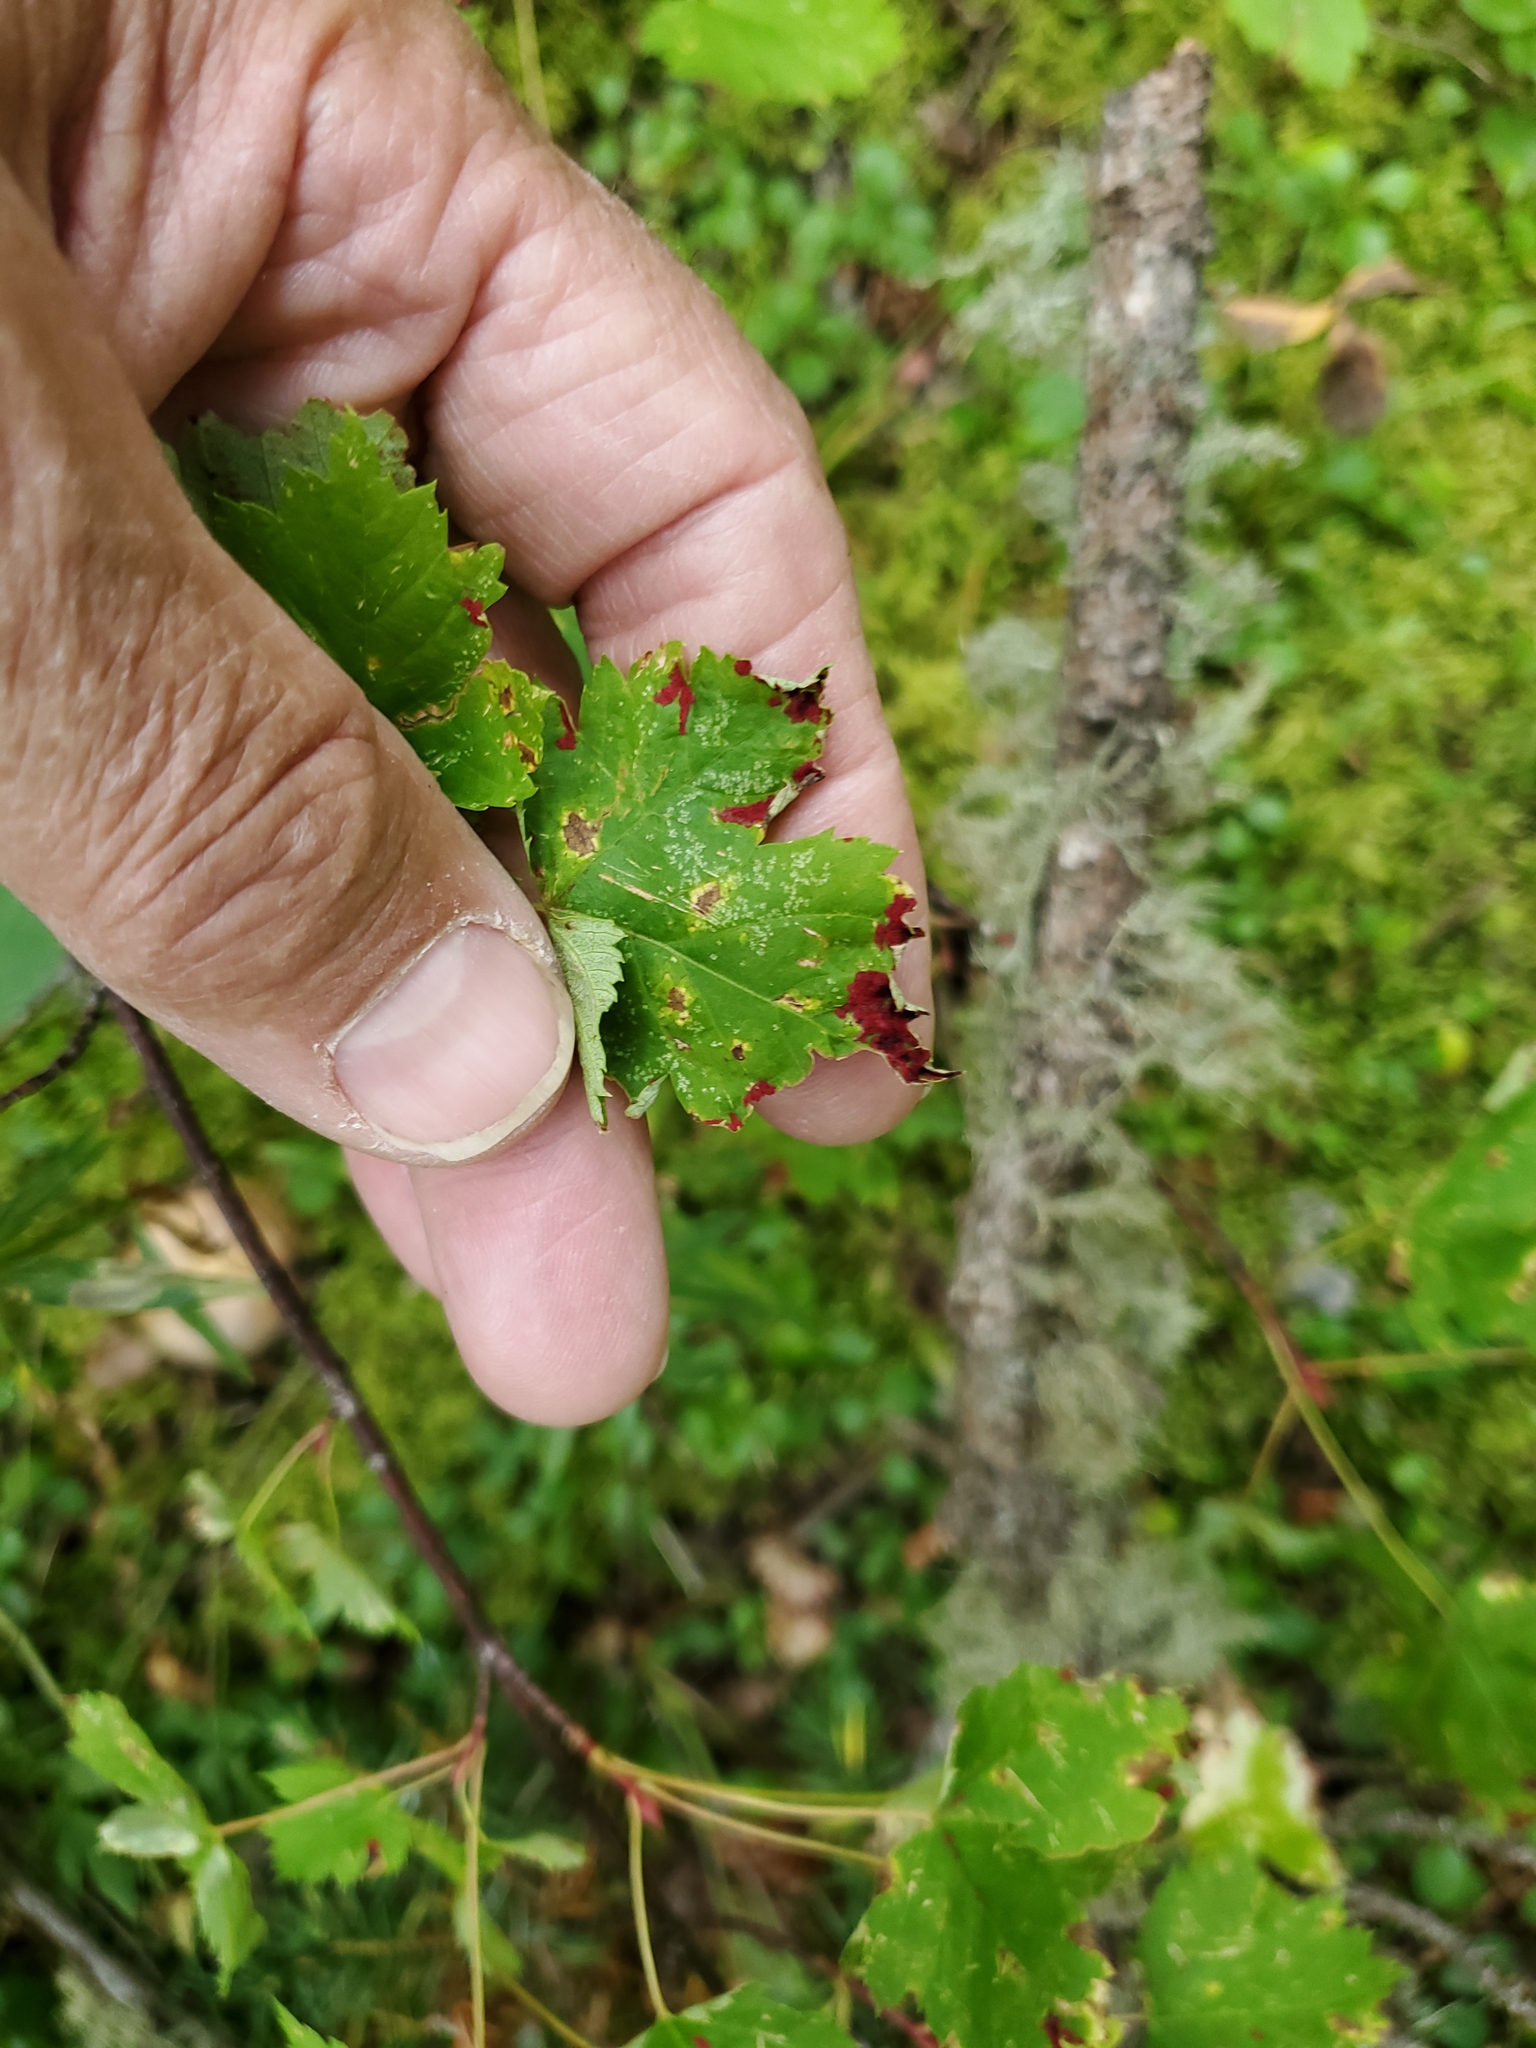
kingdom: Animalia
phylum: Arthropoda
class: Arachnida
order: Trombidiformes
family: Eriophyidae
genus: Aceria
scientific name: Aceria
